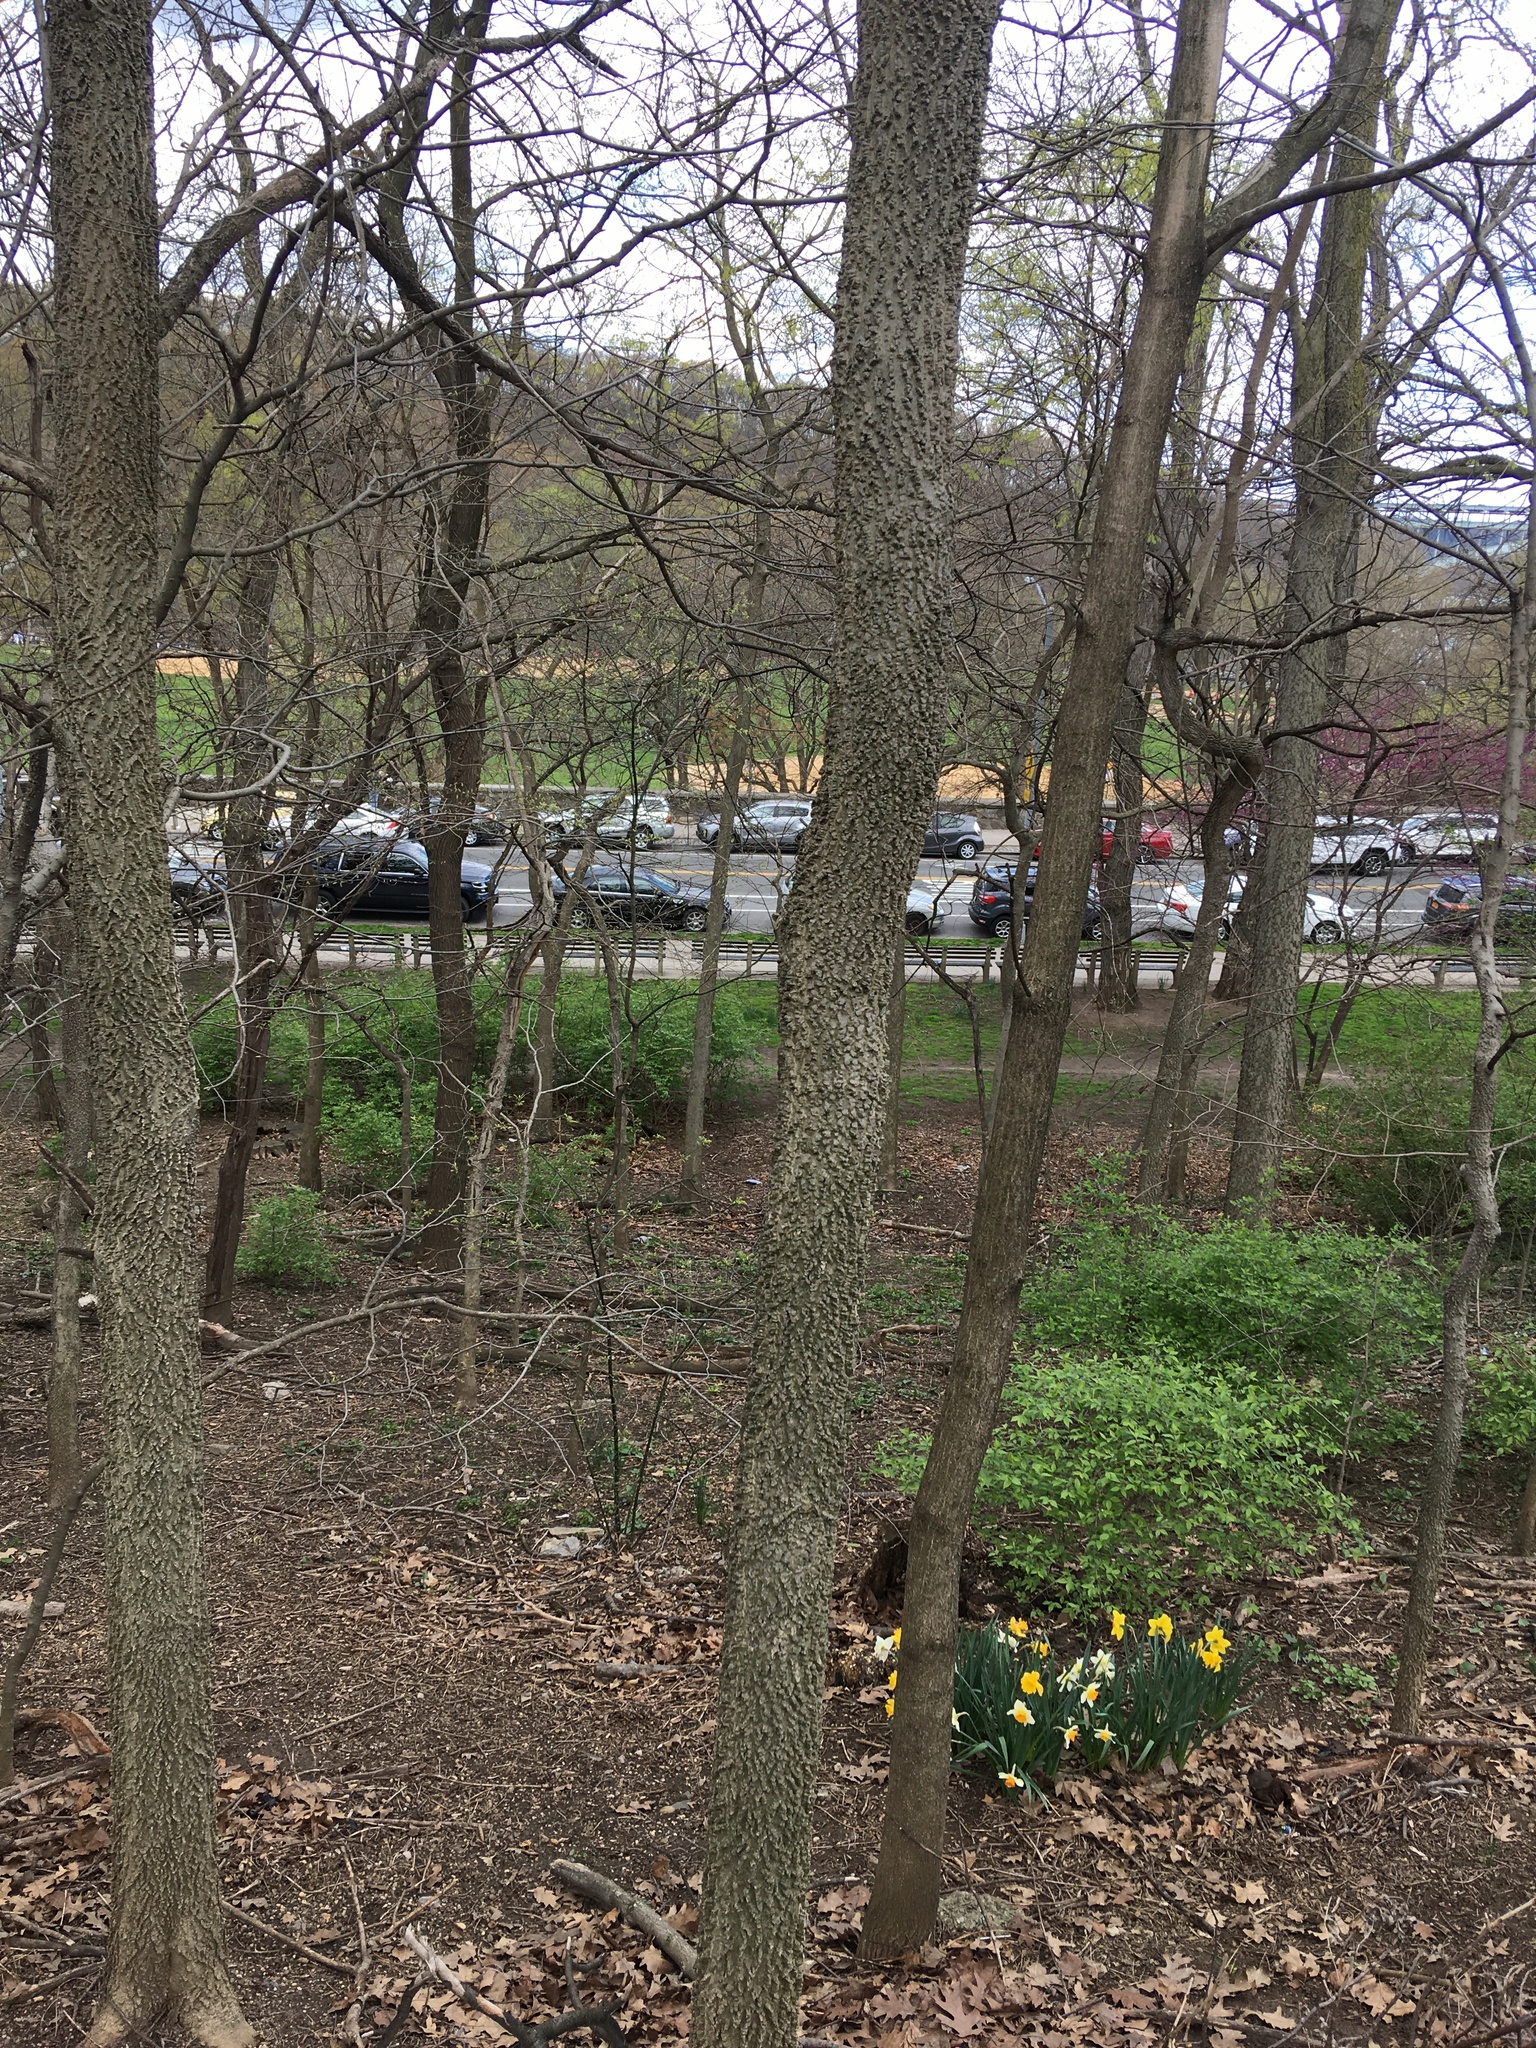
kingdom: Plantae
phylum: Tracheophyta
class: Magnoliopsida
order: Rosales
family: Cannabaceae
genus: Celtis
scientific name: Celtis occidentalis
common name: Common hackberry
